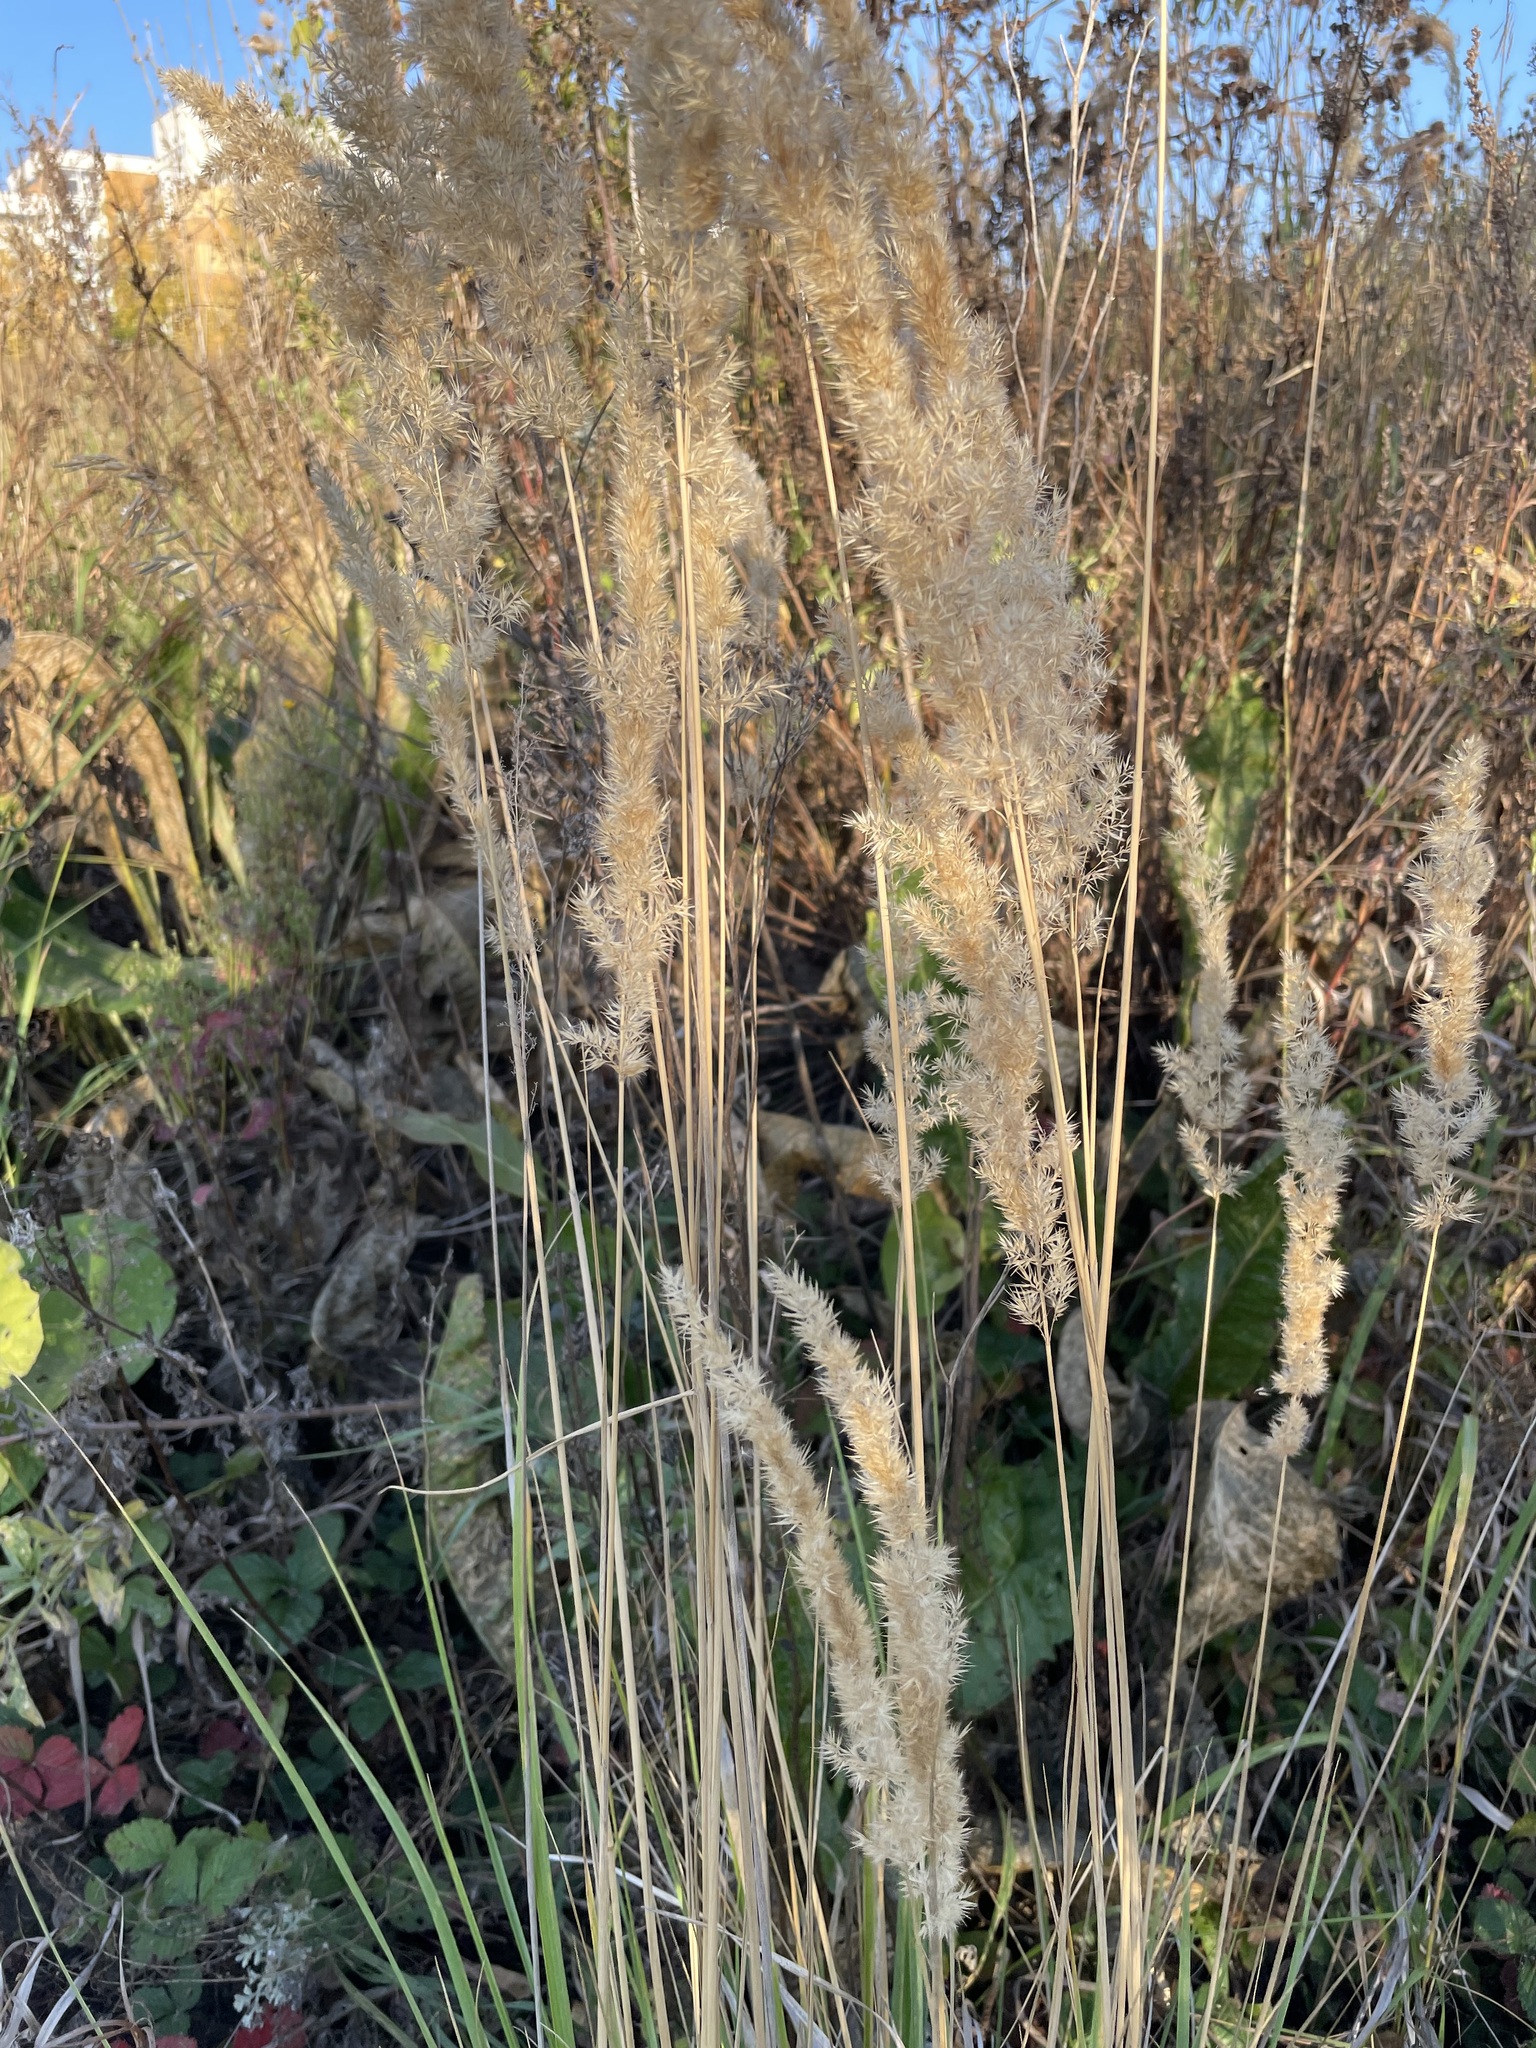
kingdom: Plantae
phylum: Tracheophyta
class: Liliopsida
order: Poales
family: Poaceae
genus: Calamagrostis
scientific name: Calamagrostis epigejos
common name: Wood small-reed
